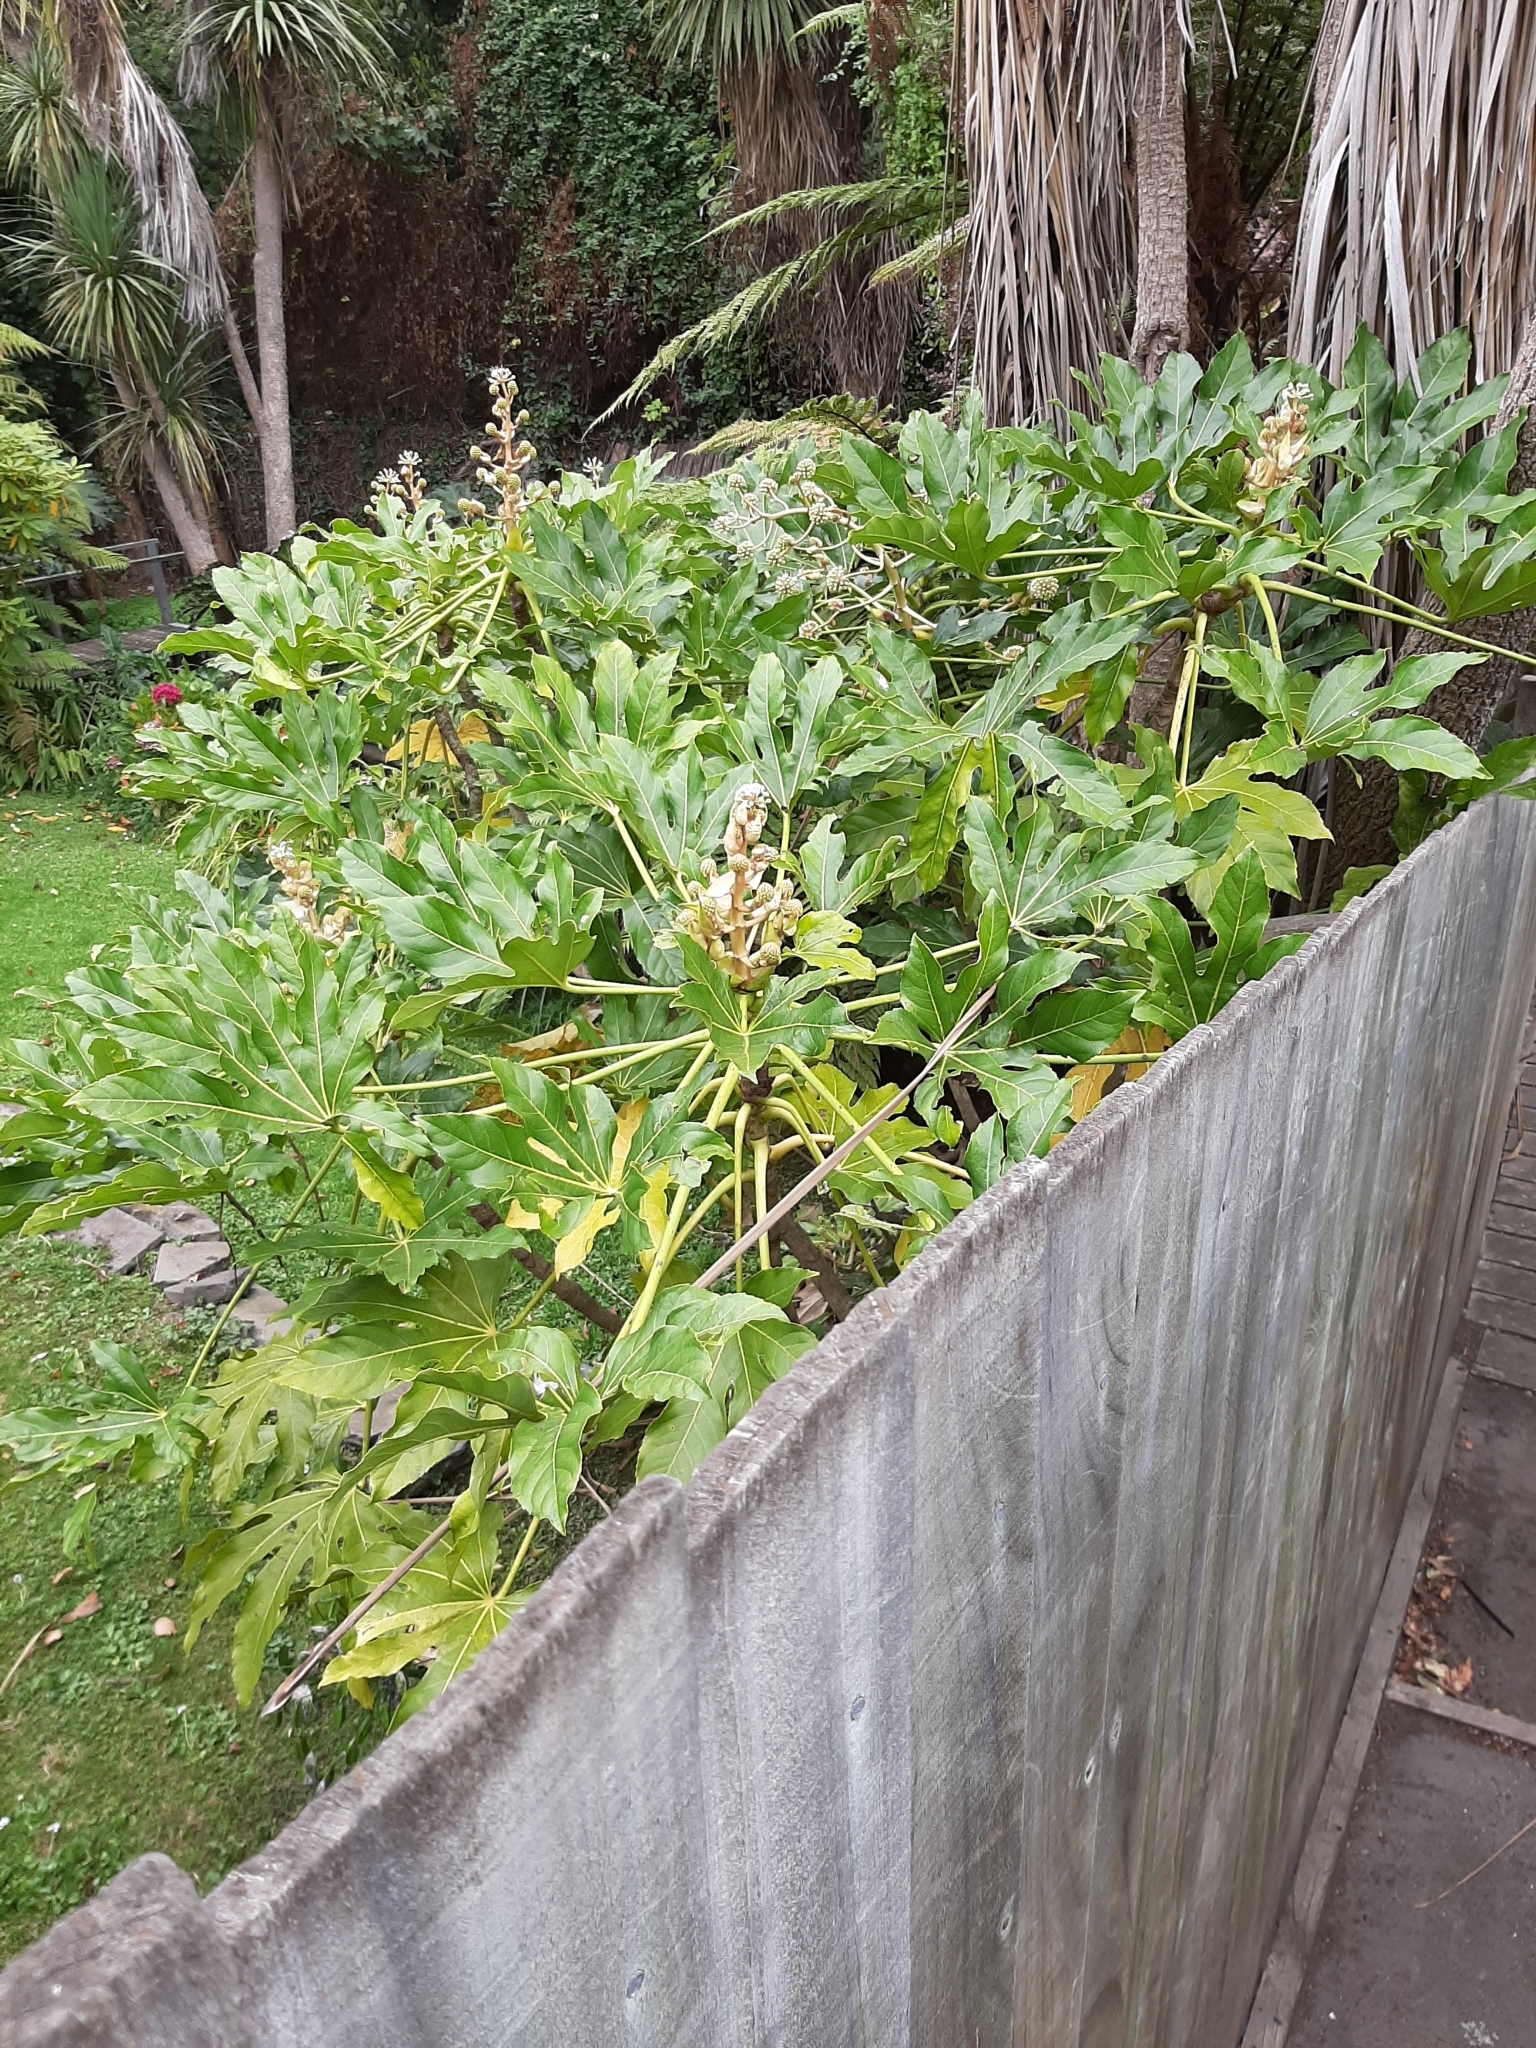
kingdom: Plantae
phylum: Tracheophyta
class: Magnoliopsida
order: Apiales
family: Araliaceae
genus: Fatsia
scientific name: Fatsia japonica
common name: Fatsia
